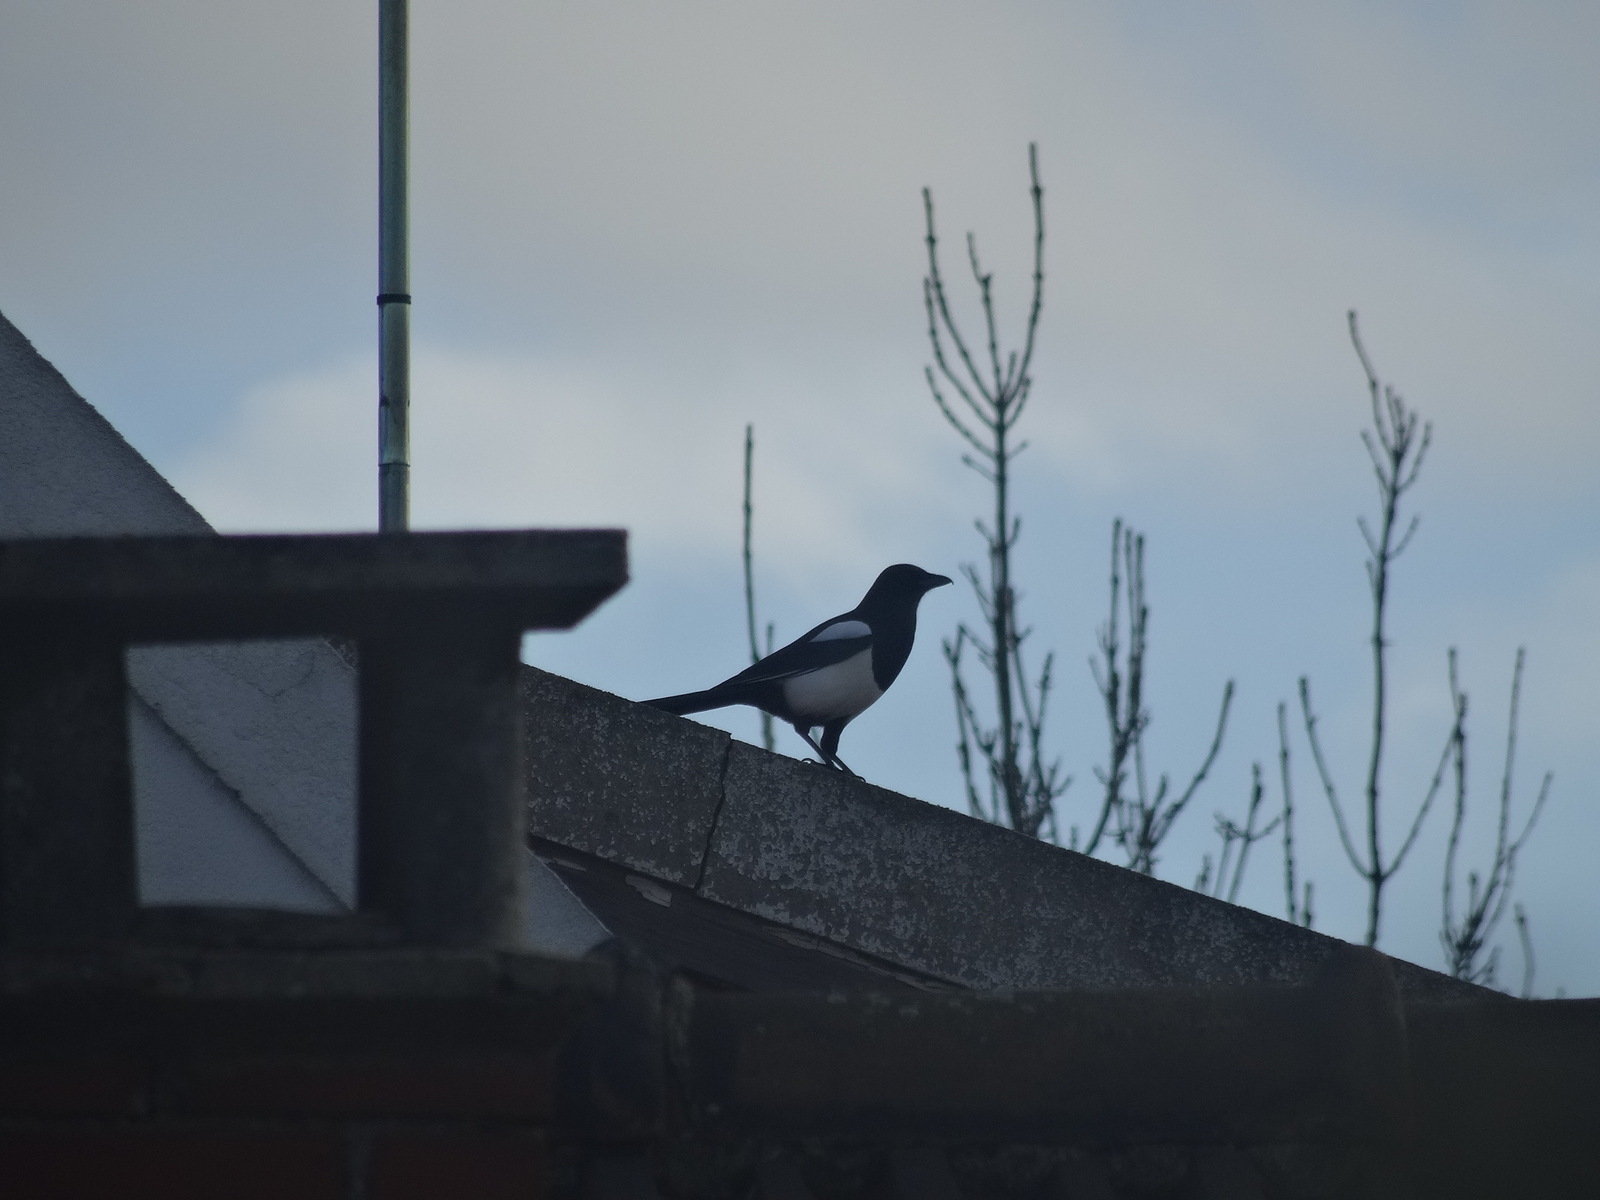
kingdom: Animalia
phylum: Chordata
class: Aves
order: Passeriformes
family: Corvidae
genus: Pica
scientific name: Pica pica
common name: Eurasian magpie
